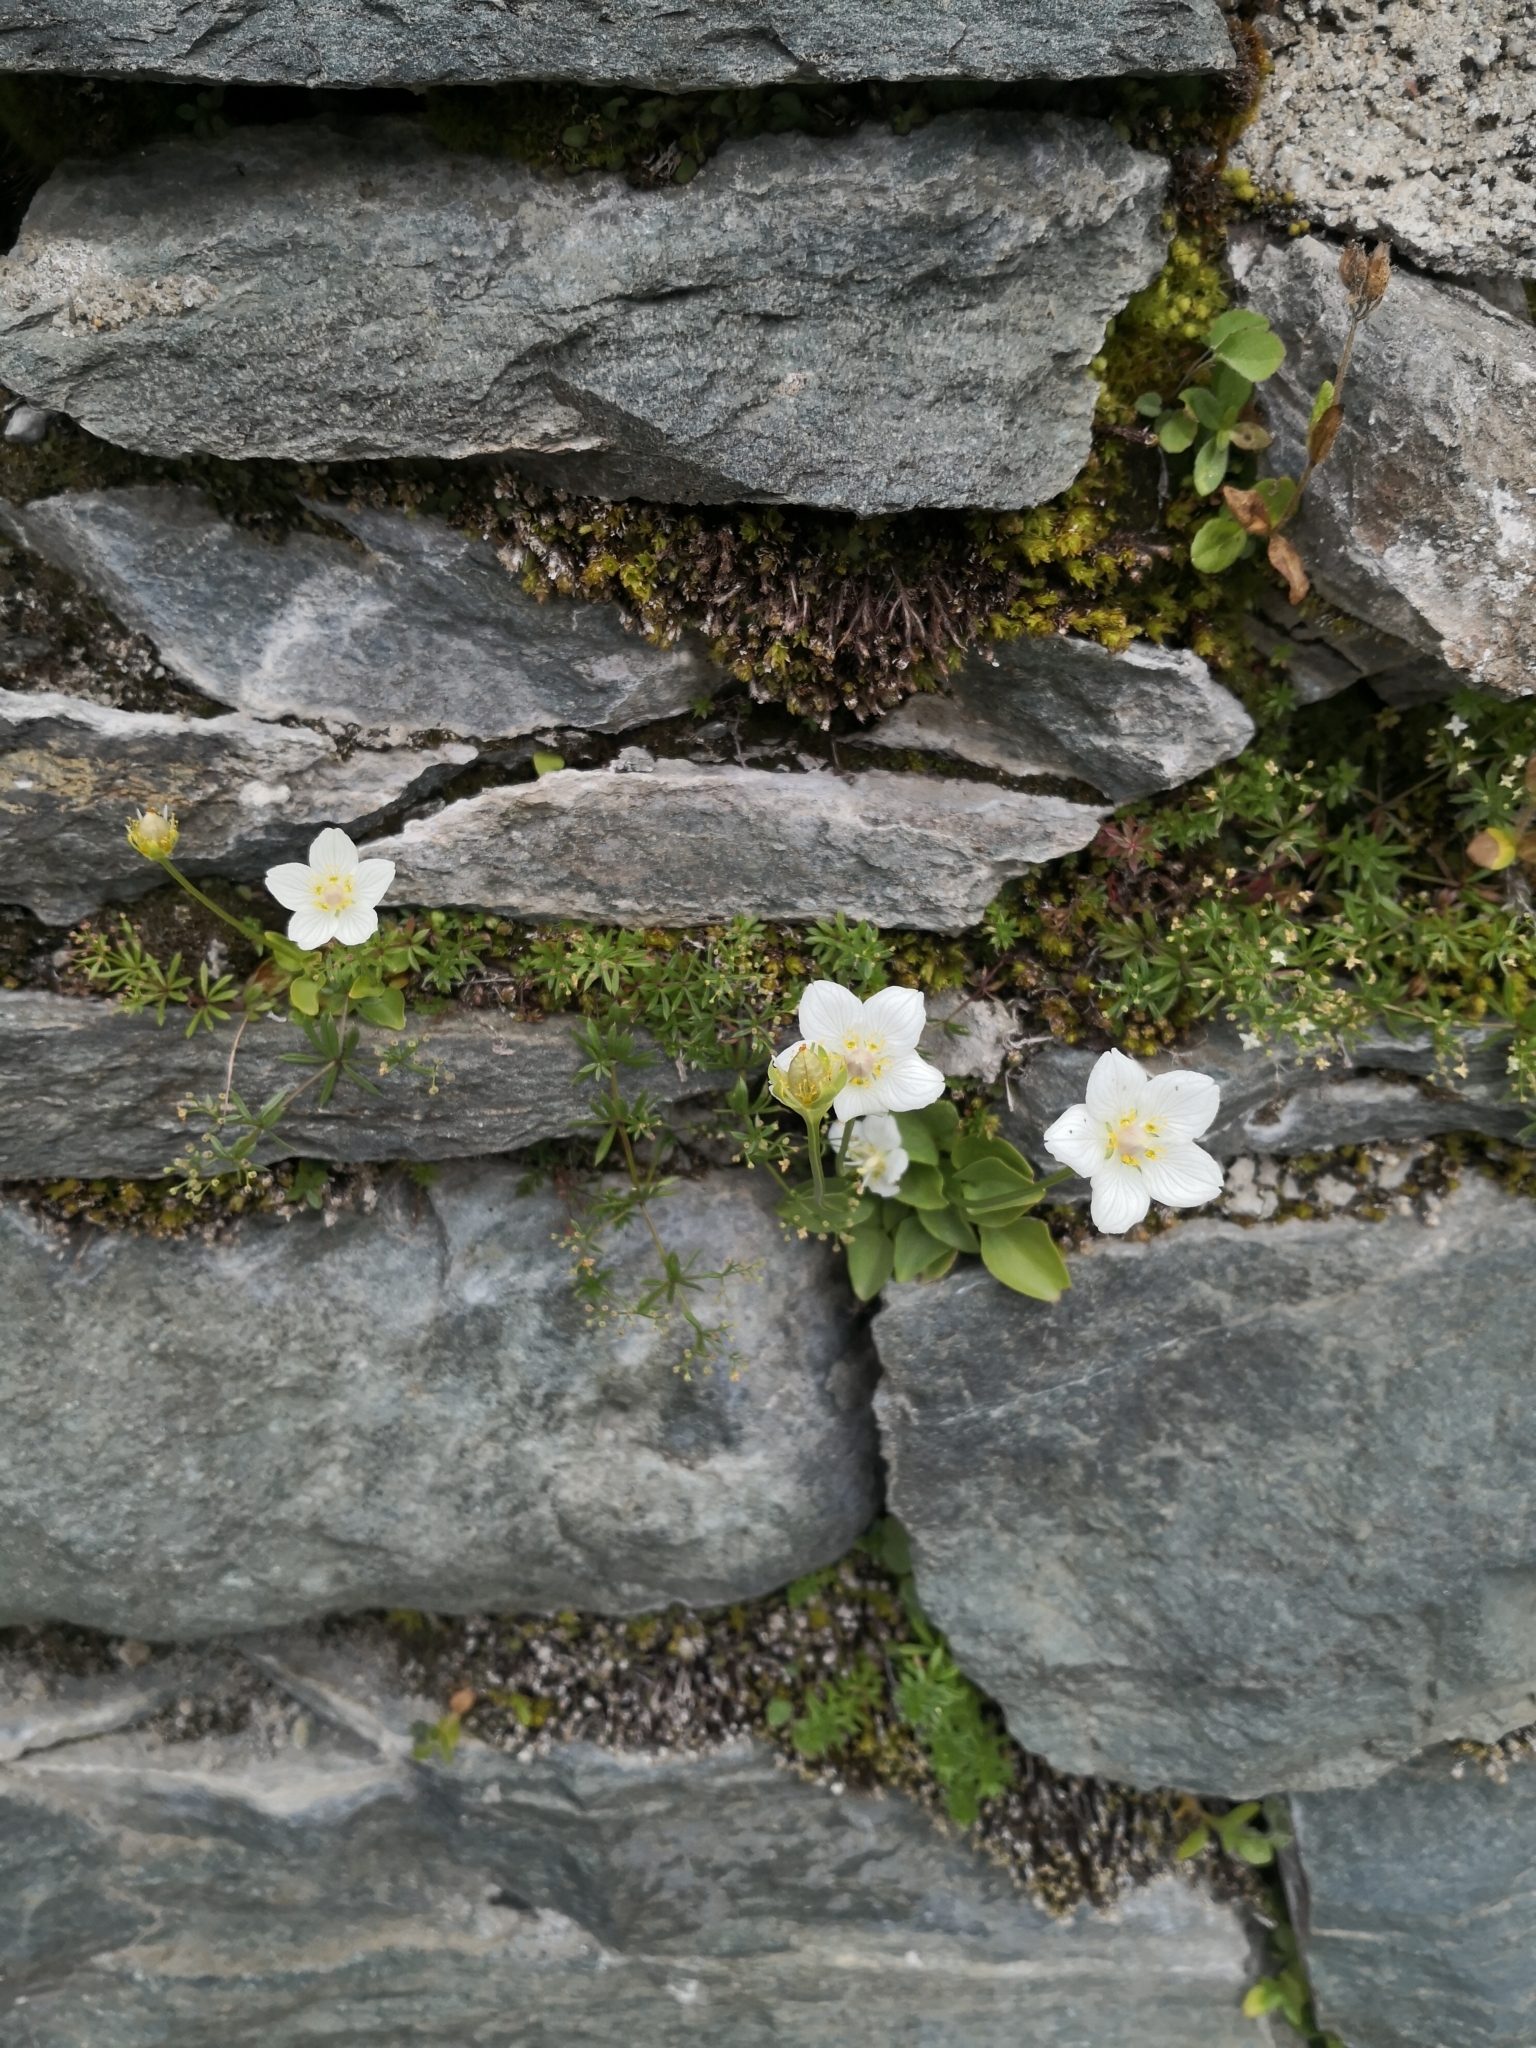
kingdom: Plantae
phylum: Tracheophyta
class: Magnoliopsida
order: Celastrales
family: Parnassiaceae
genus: Parnassia
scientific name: Parnassia palustris
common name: Grass-of-parnassus
